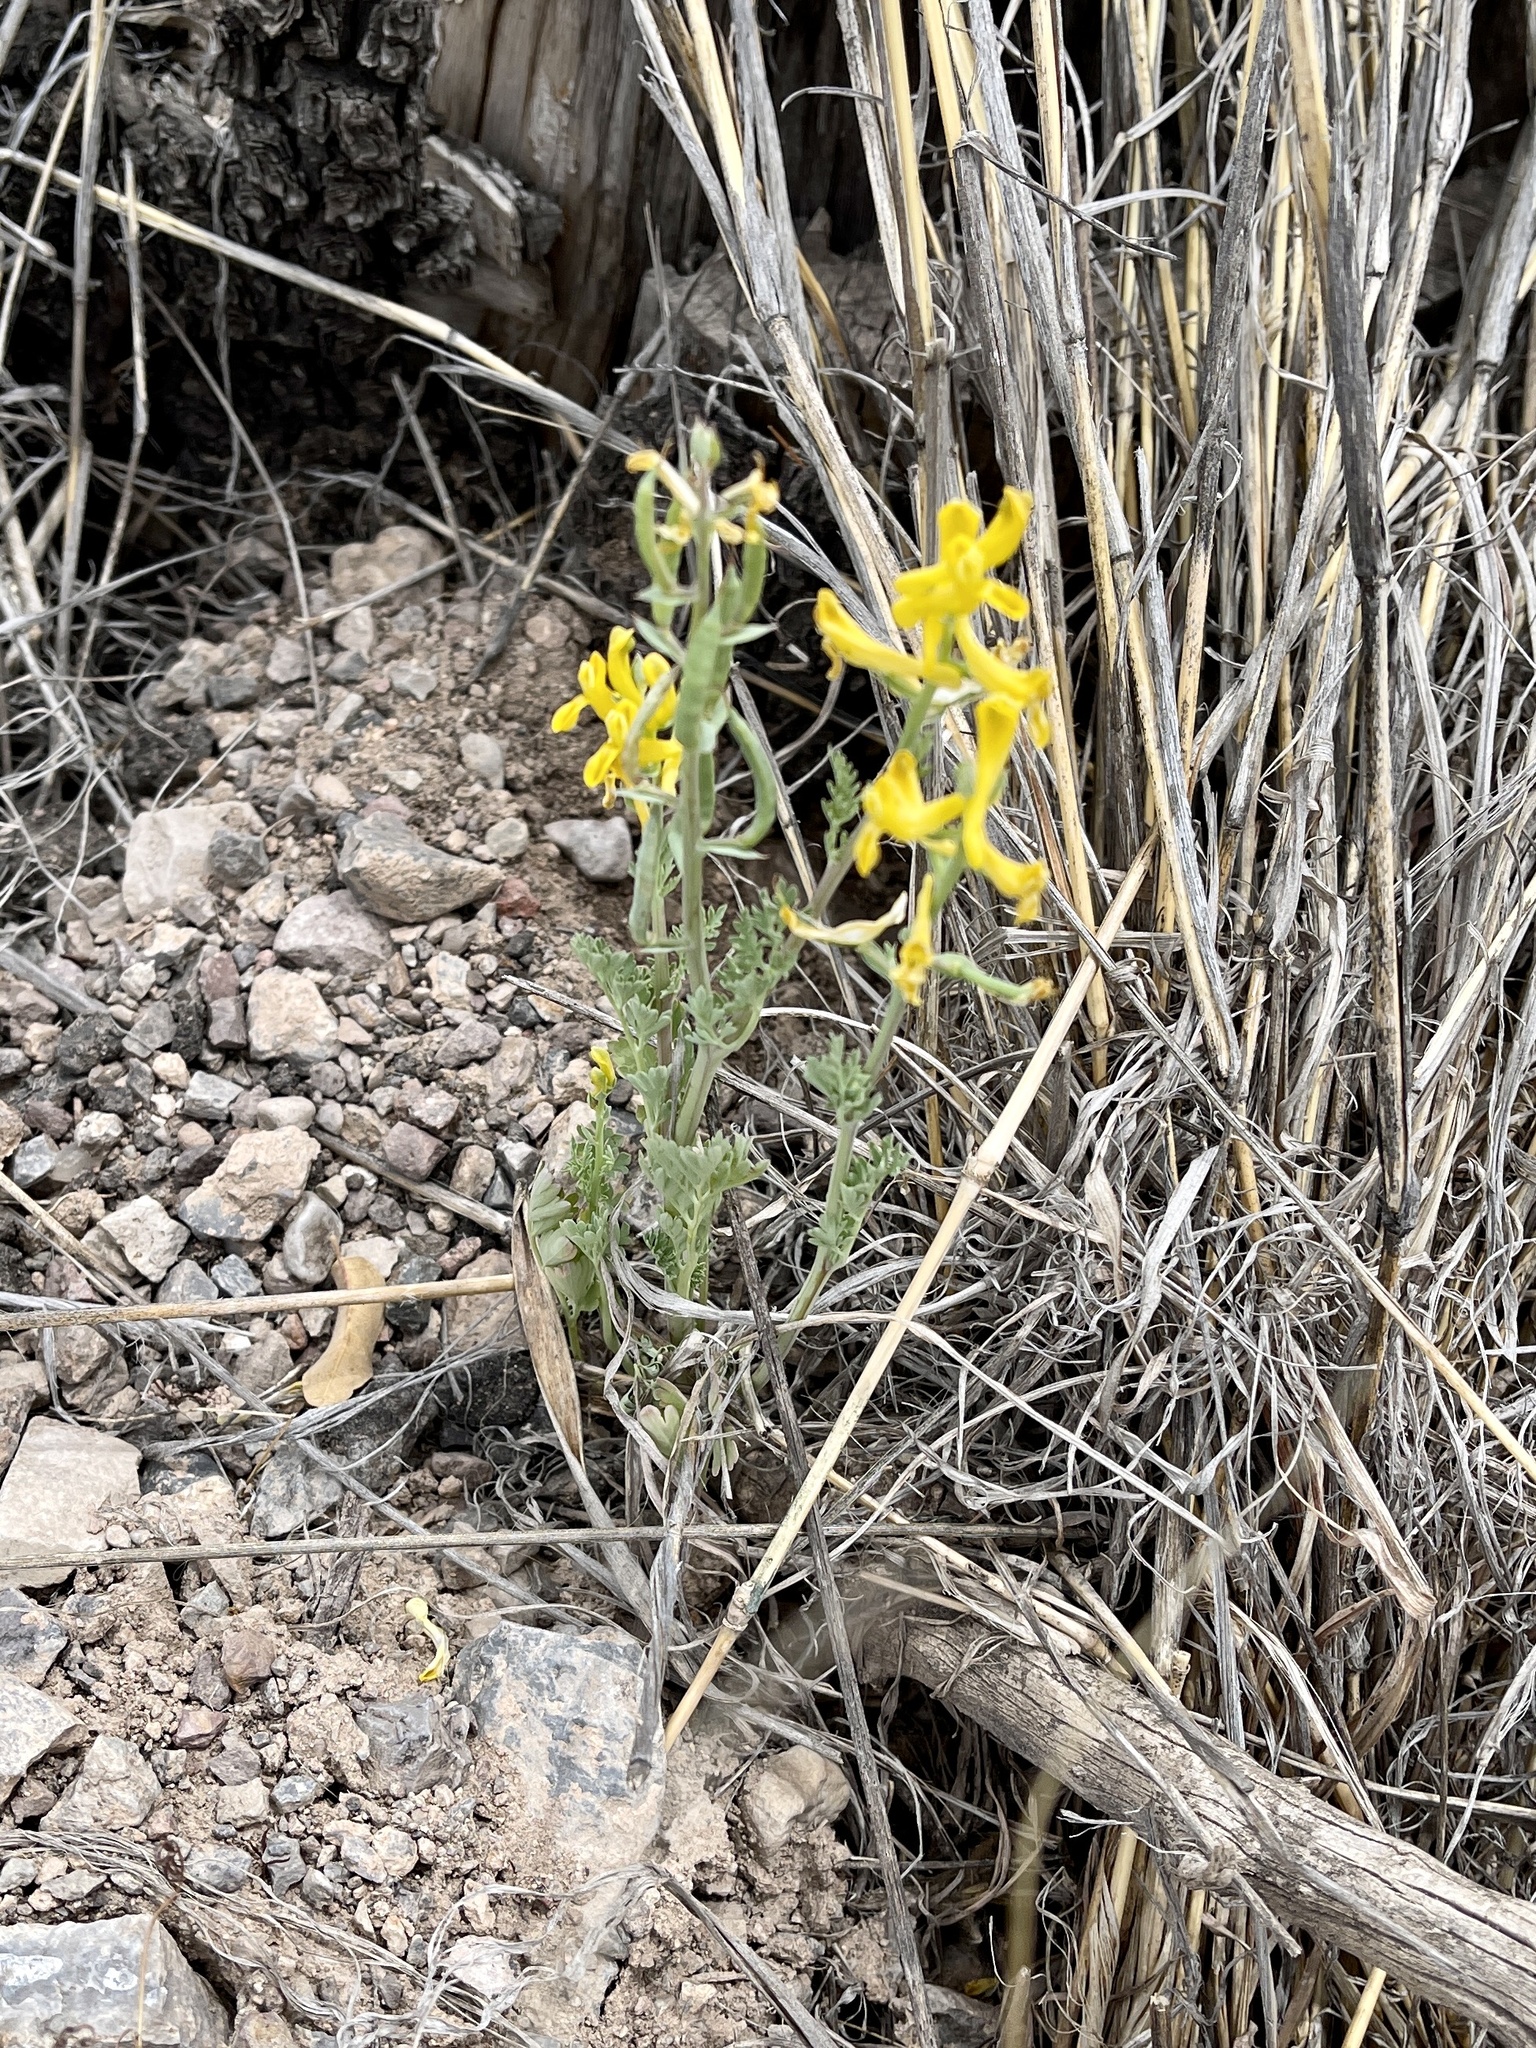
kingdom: Plantae
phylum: Tracheophyta
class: Magnoliopsida
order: Ranunculales
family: Papaveraceae
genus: Corydalis
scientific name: Corydalis aurea
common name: Golden corydalis
